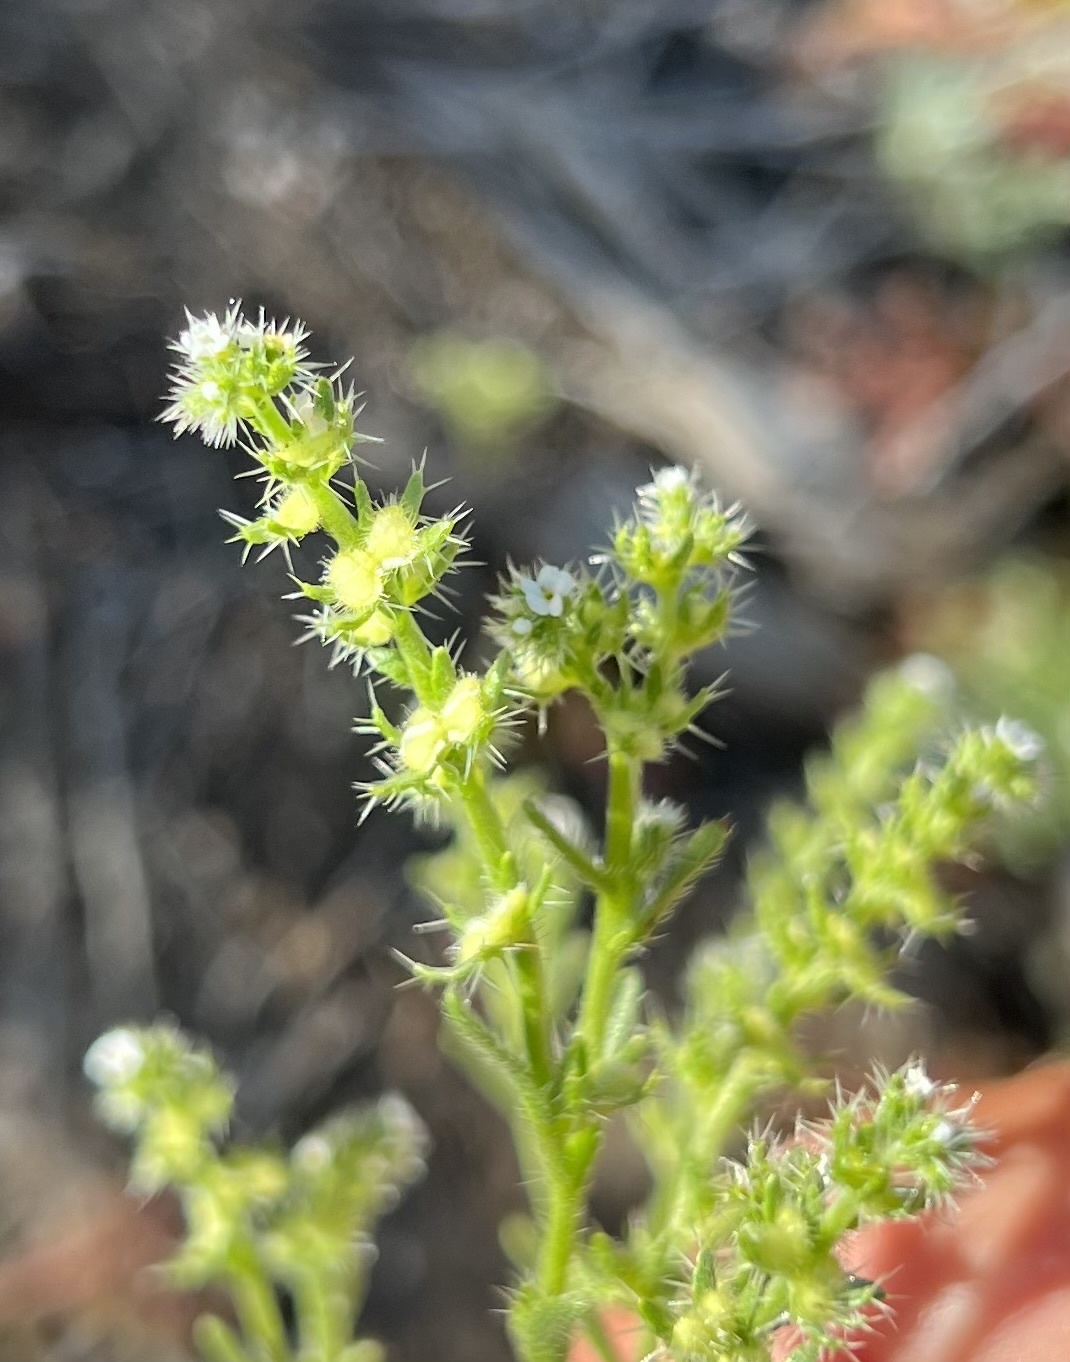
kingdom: Plantae
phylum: Tracheophyta
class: Magnoliopsida
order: Boraginales
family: Boraginaceae
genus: Pectocarya
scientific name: Pectocarya setosa
